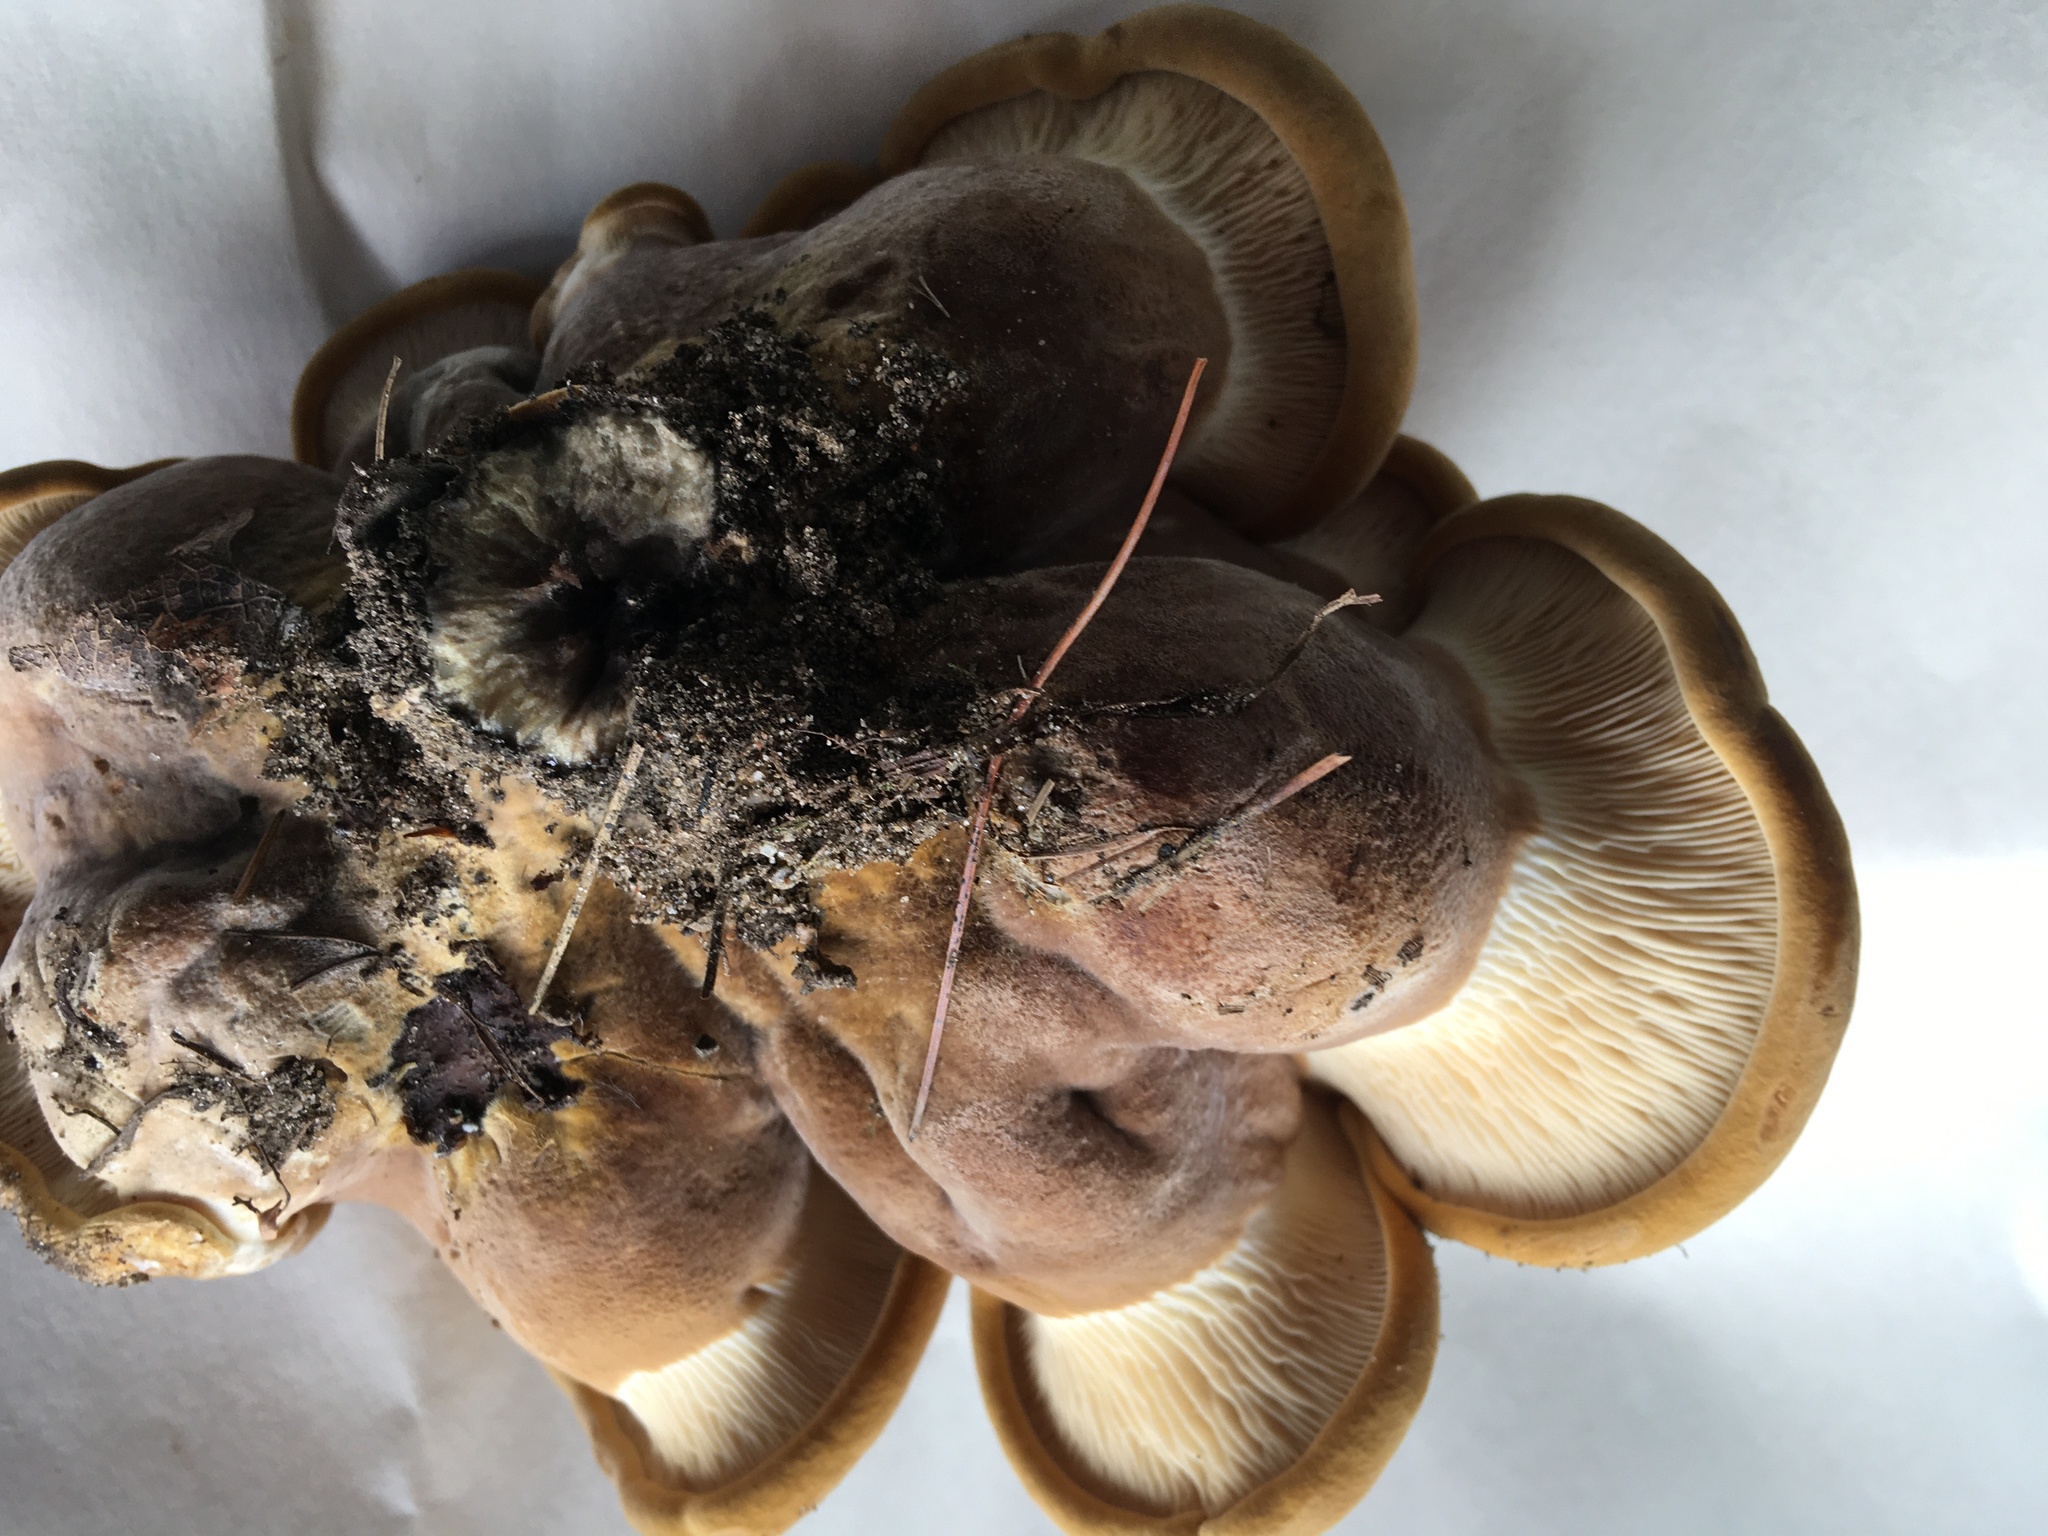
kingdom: Fungi
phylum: Basidiomycota
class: Agaricomycetes
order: Boletales
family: Tapinellaceae
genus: Tapinella
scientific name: Tapinella atrotomentosa
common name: Velvet rollrim
